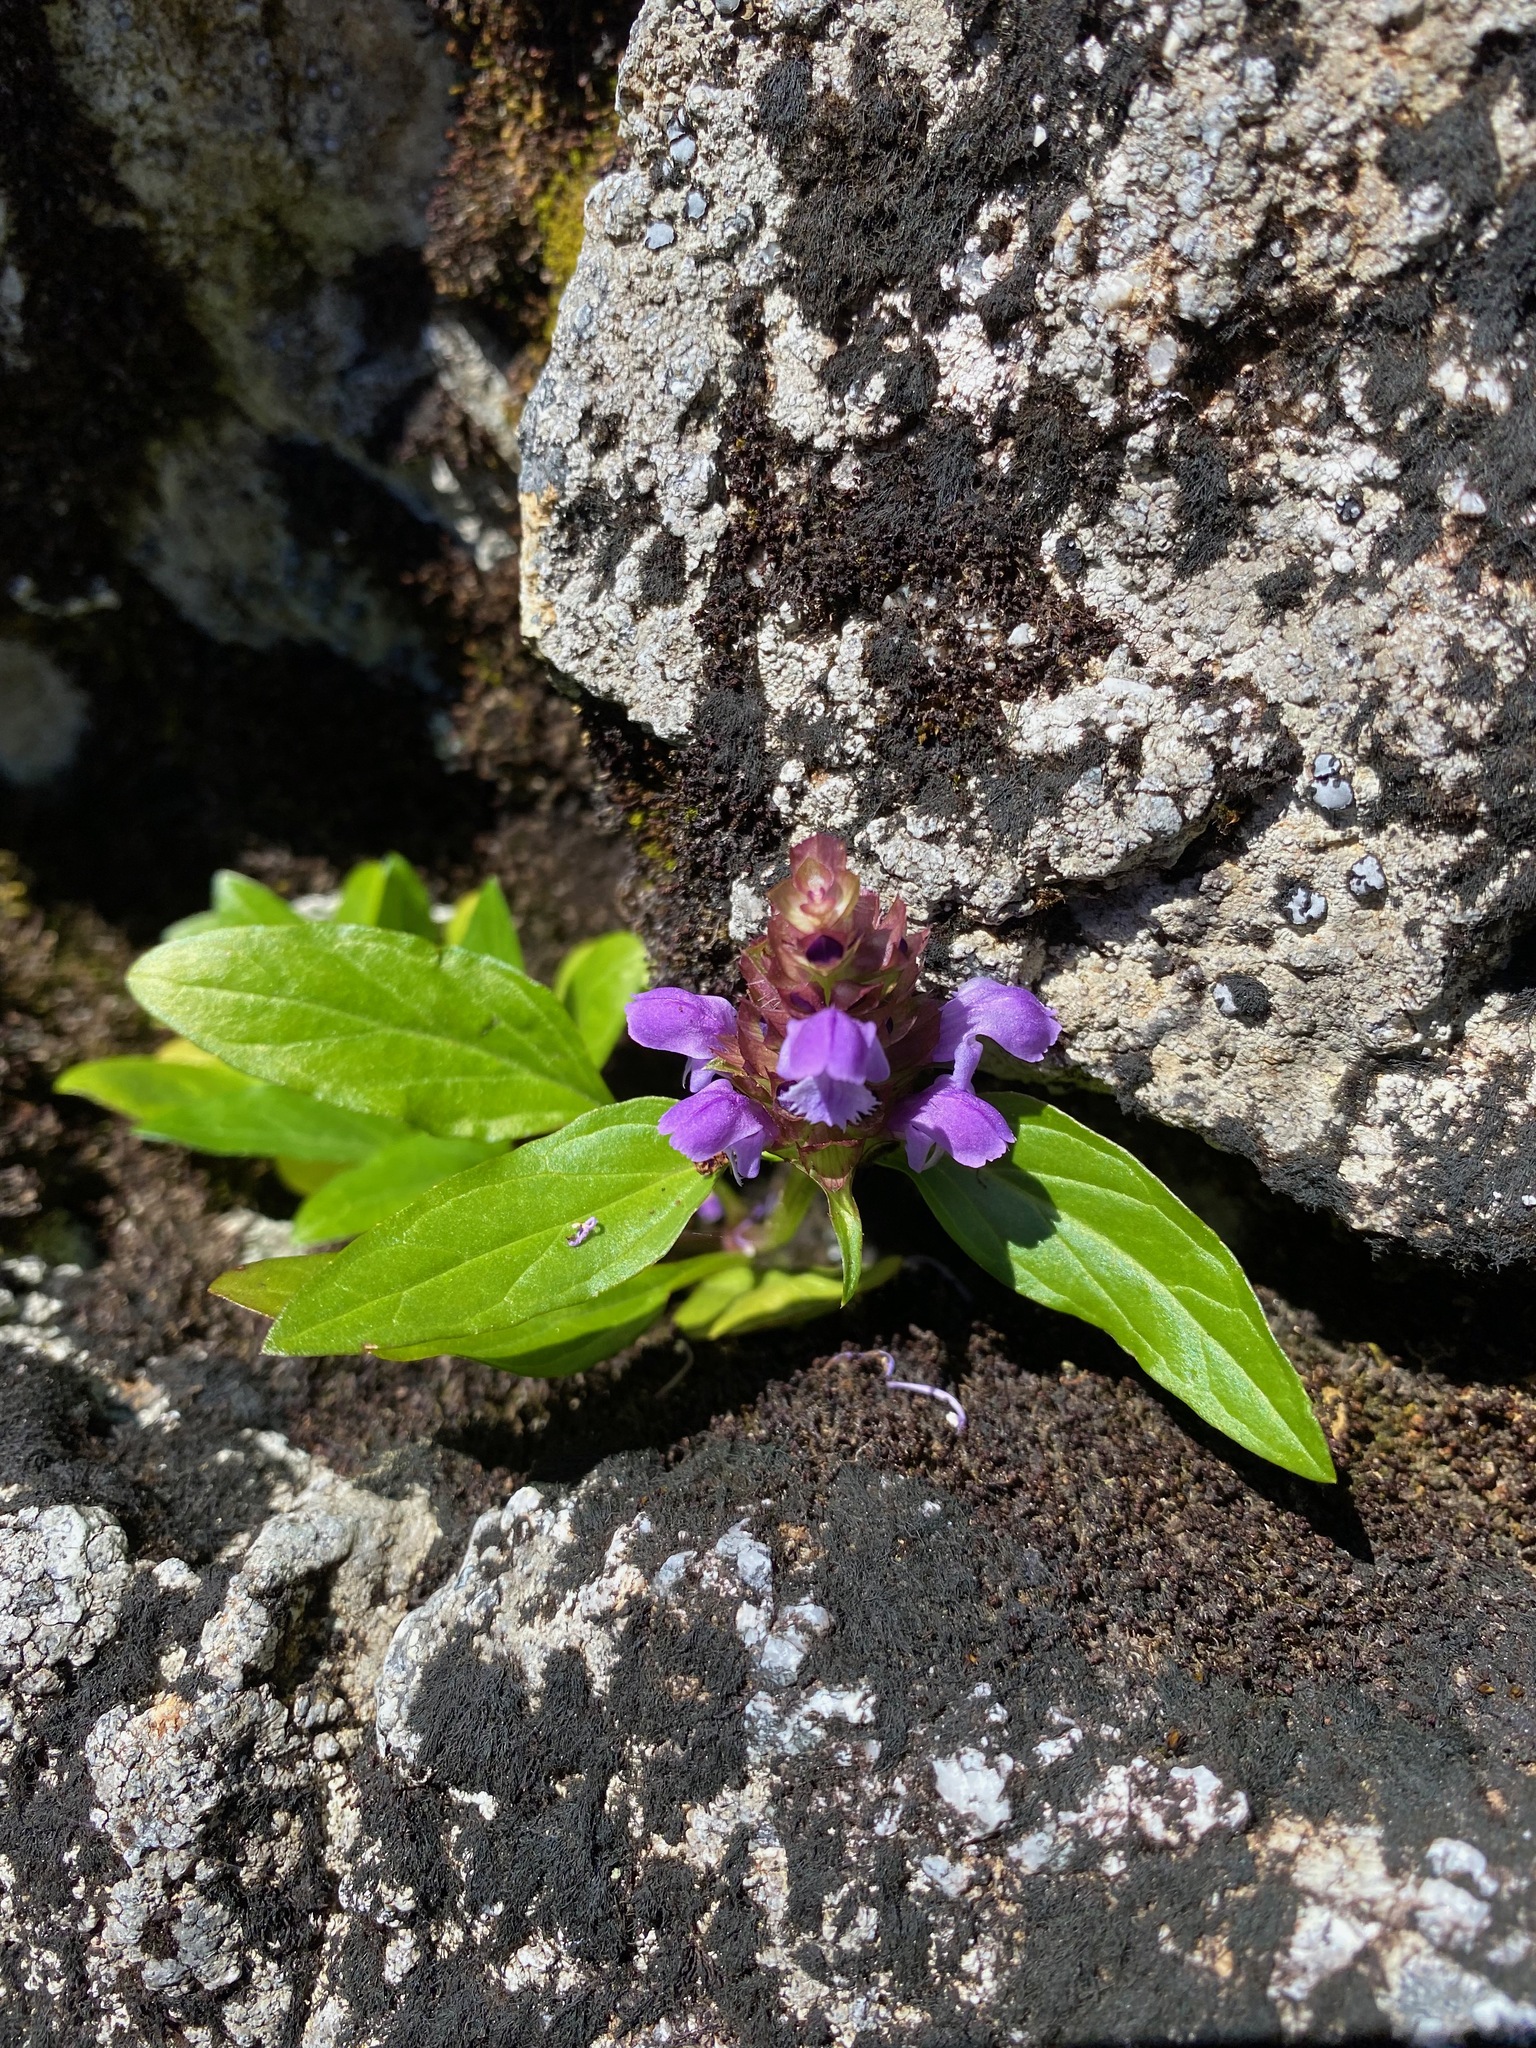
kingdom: Plantae
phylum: Tracheophyta
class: Magnoliopsida
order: Lamiales
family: Lamiaceae
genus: Prunella
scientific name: Prunella vulgaris
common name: Heal-all
